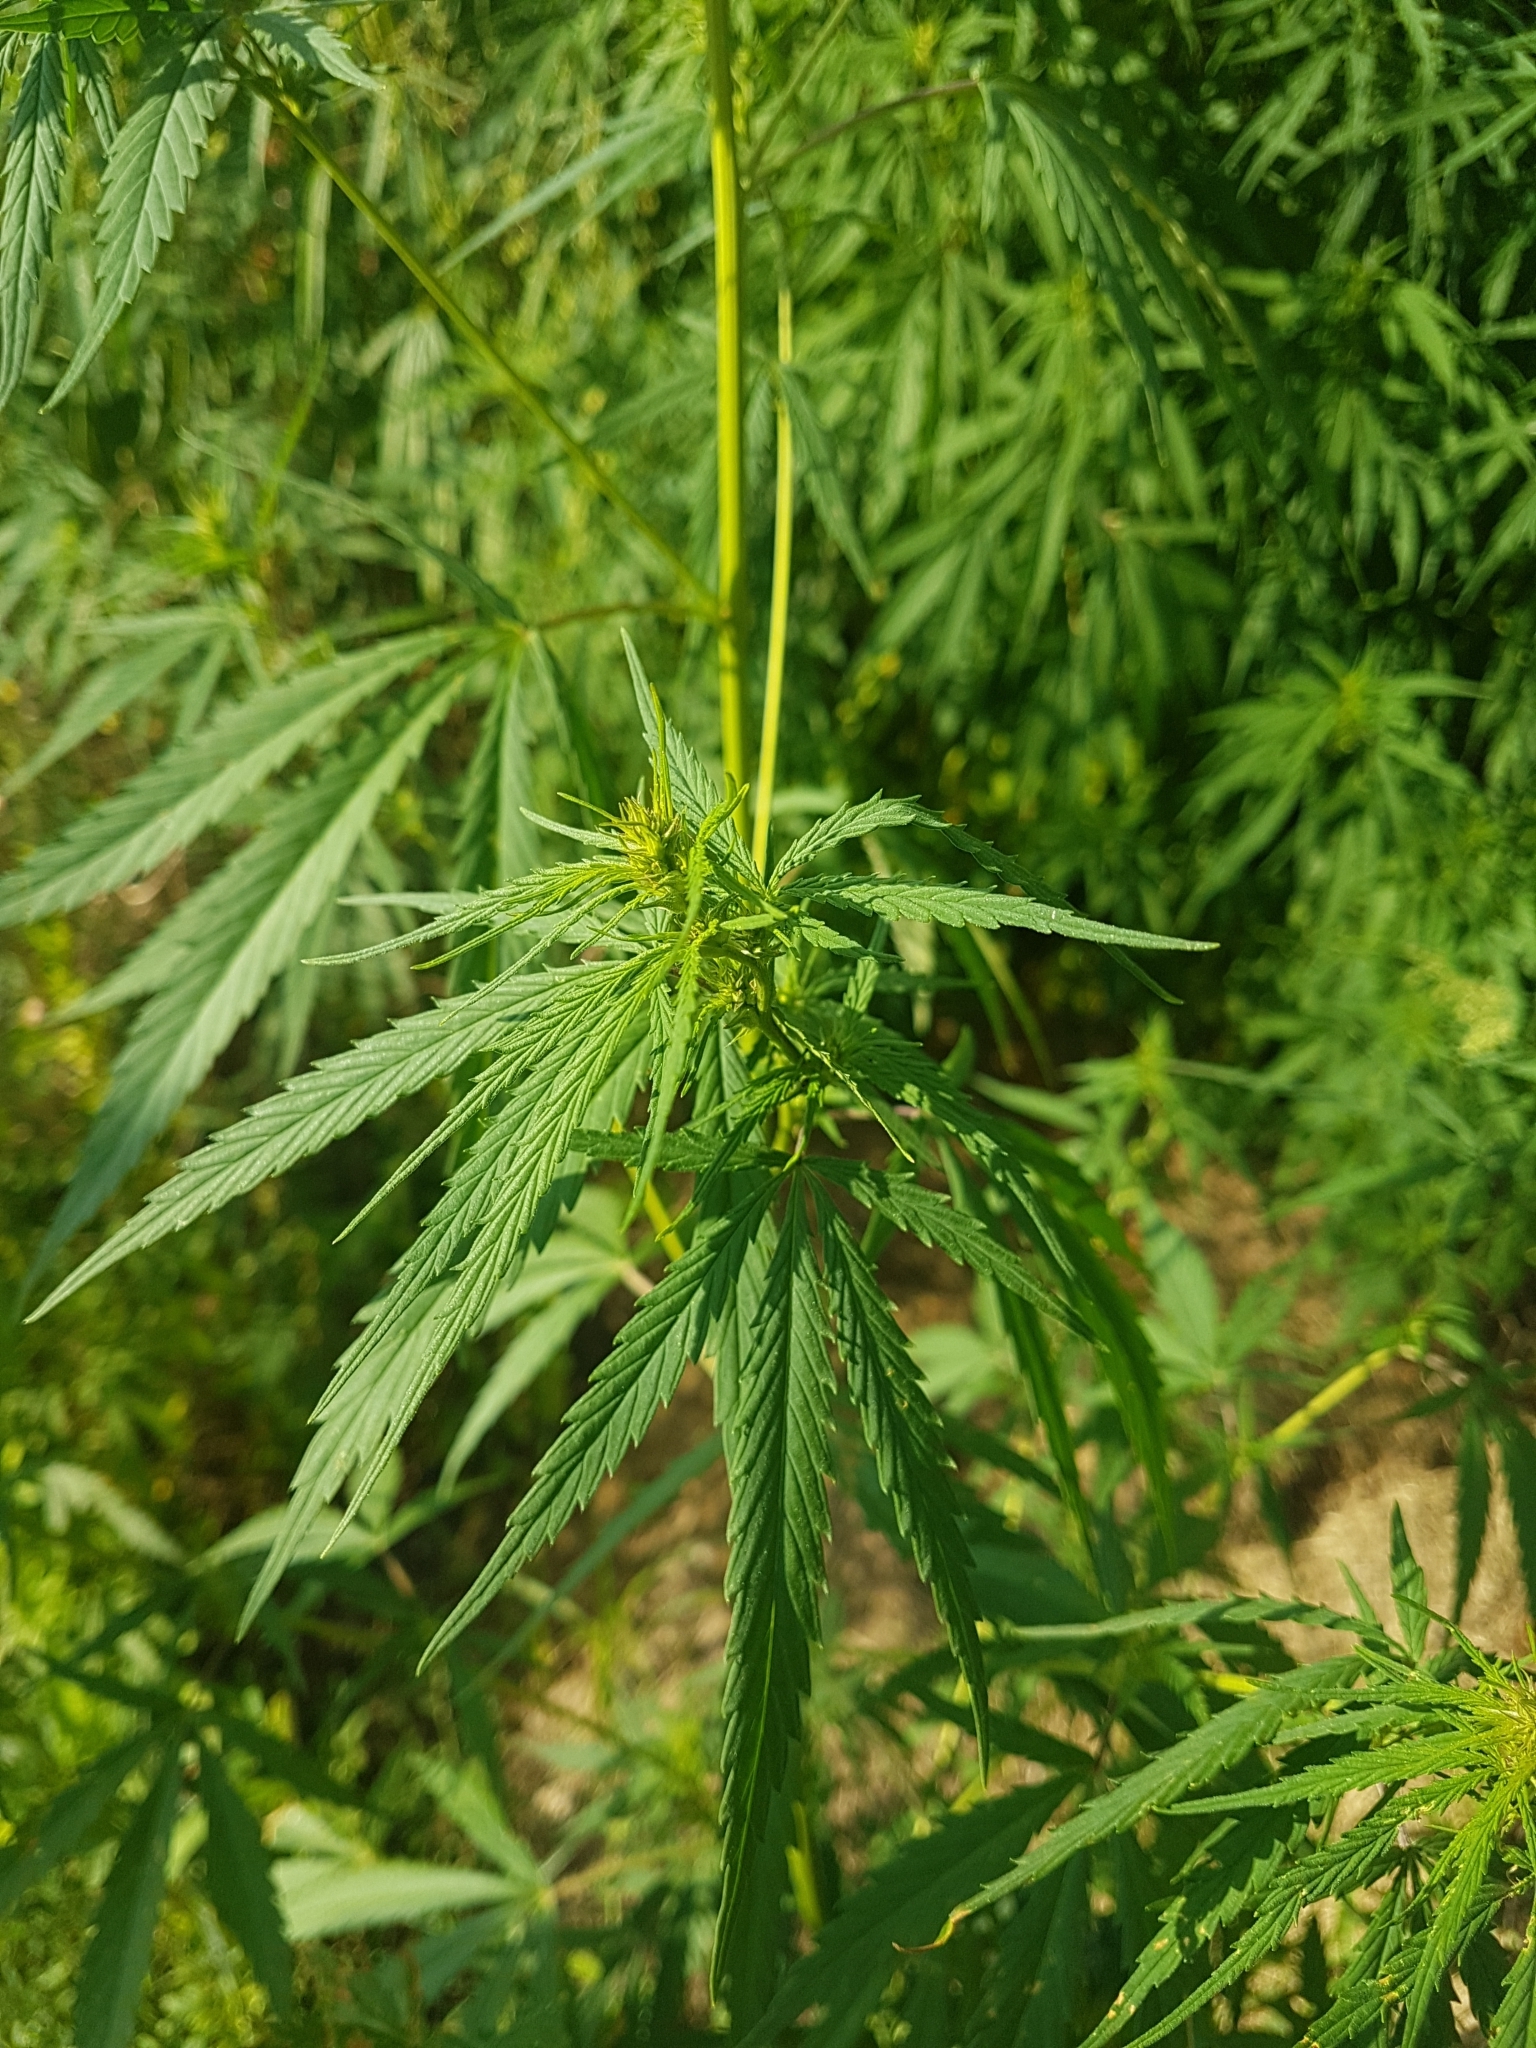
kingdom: Plantae
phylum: Tracheophyta
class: Magnoliopsida
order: Rosales
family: Cannabaceae
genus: Cannabis
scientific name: Cannabis sativa
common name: Hemp
